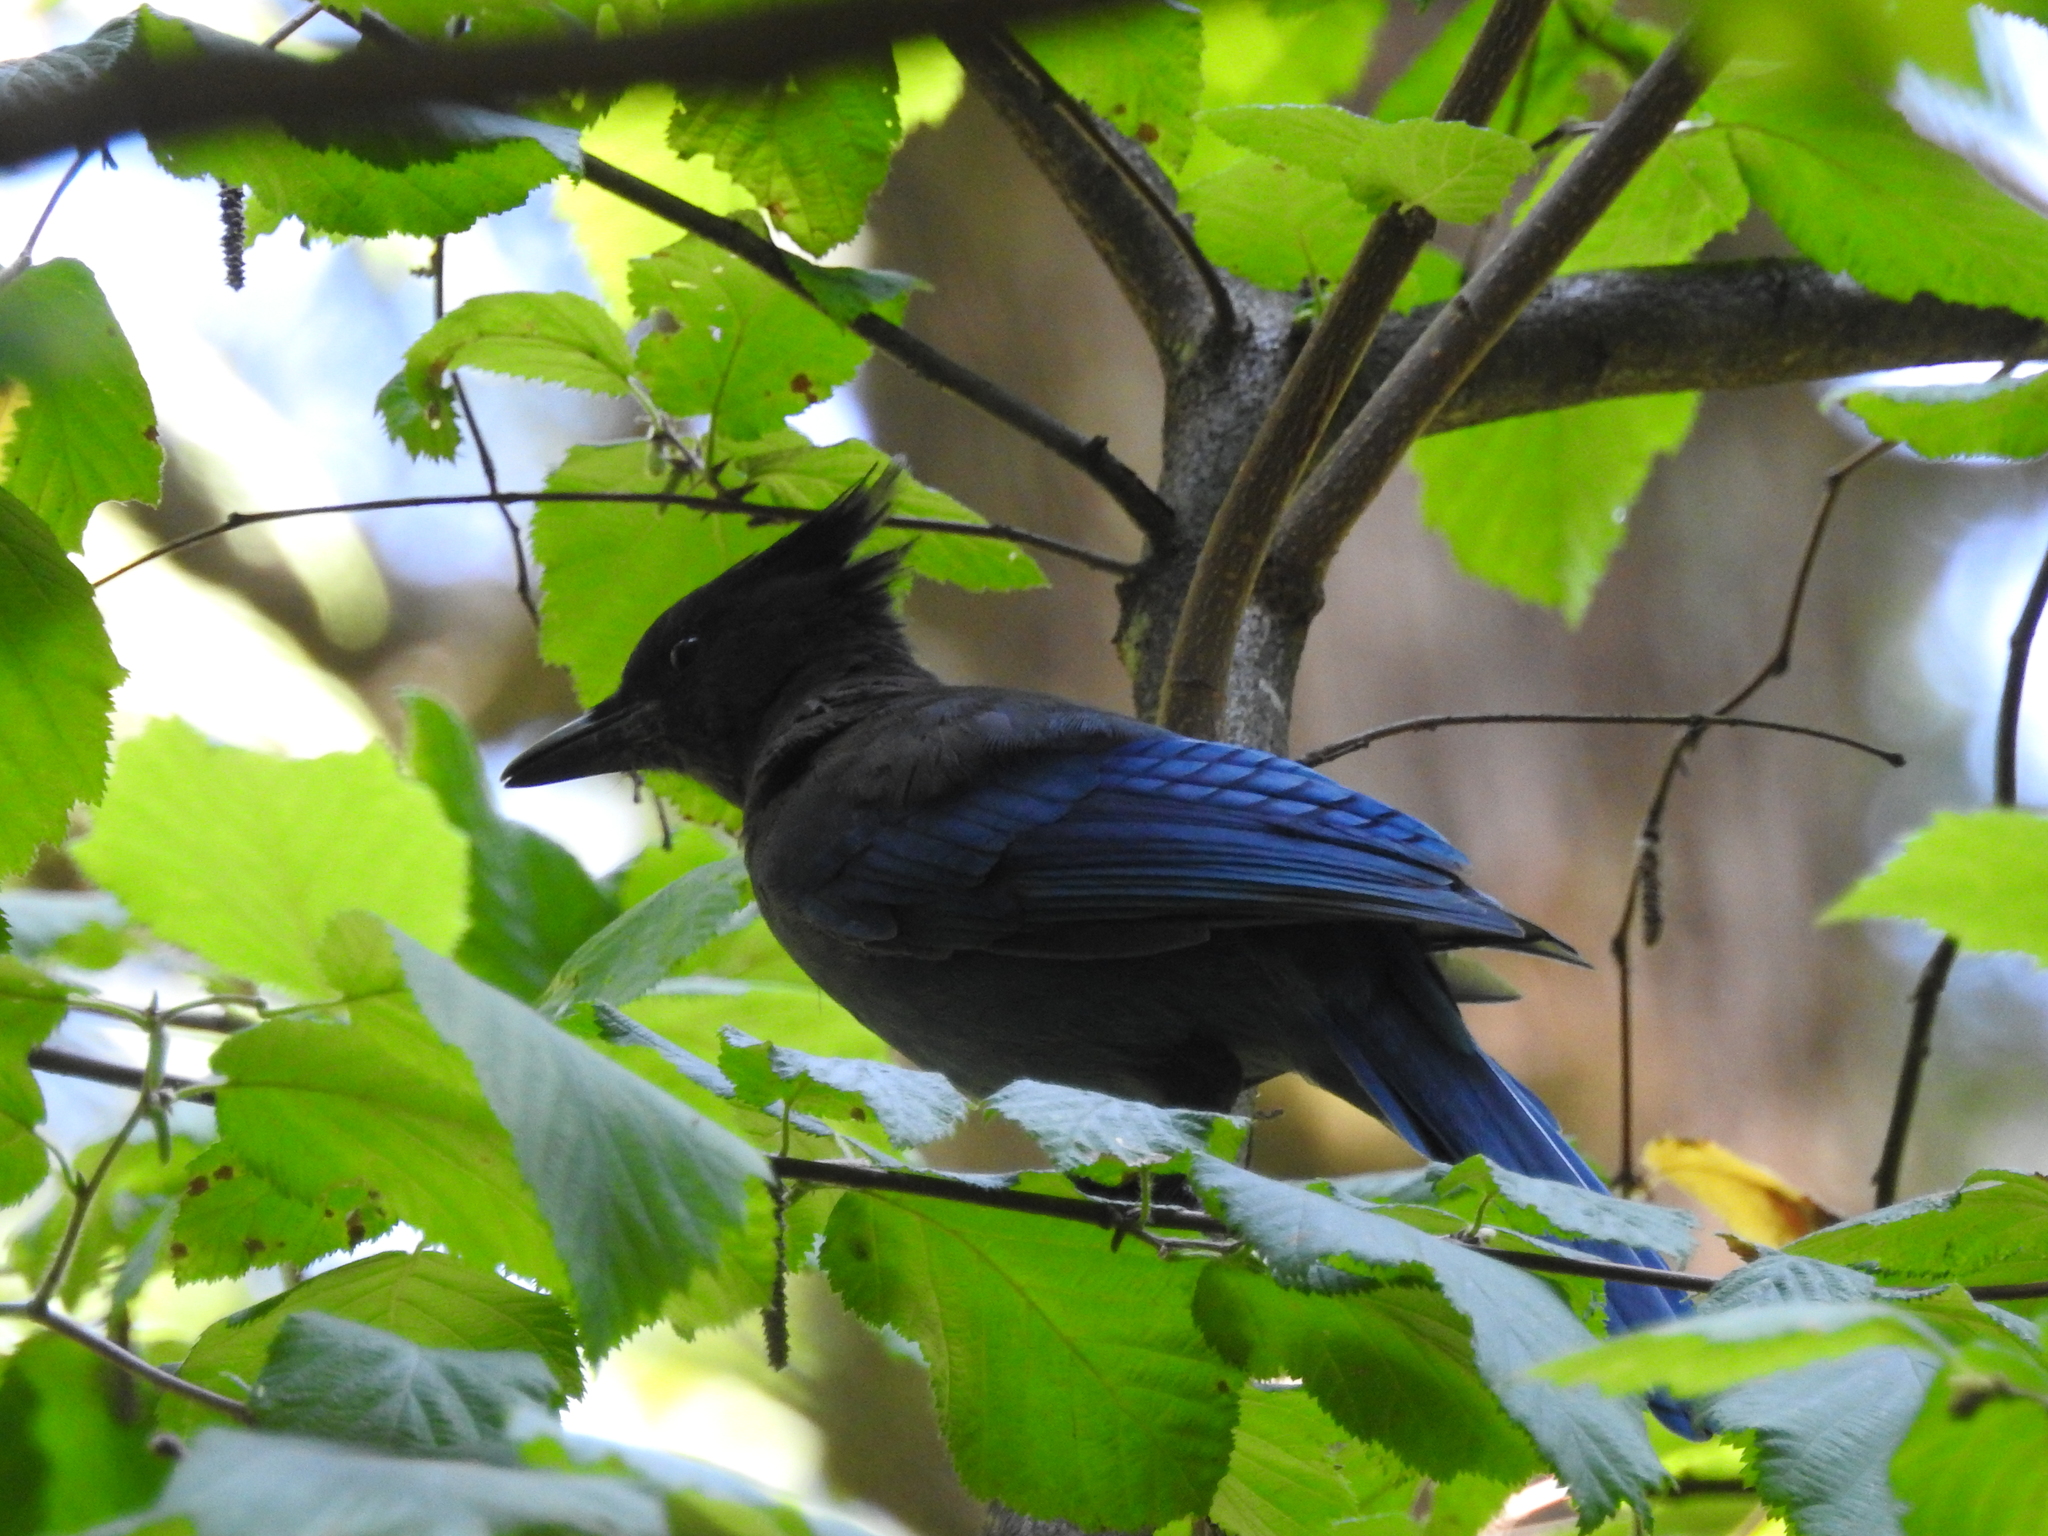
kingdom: Animalia
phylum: Chordata
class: Aves
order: Passeriformes
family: Corvidae
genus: Cyanocitta
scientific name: Cyanocitta stelleri
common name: Steller's jay
